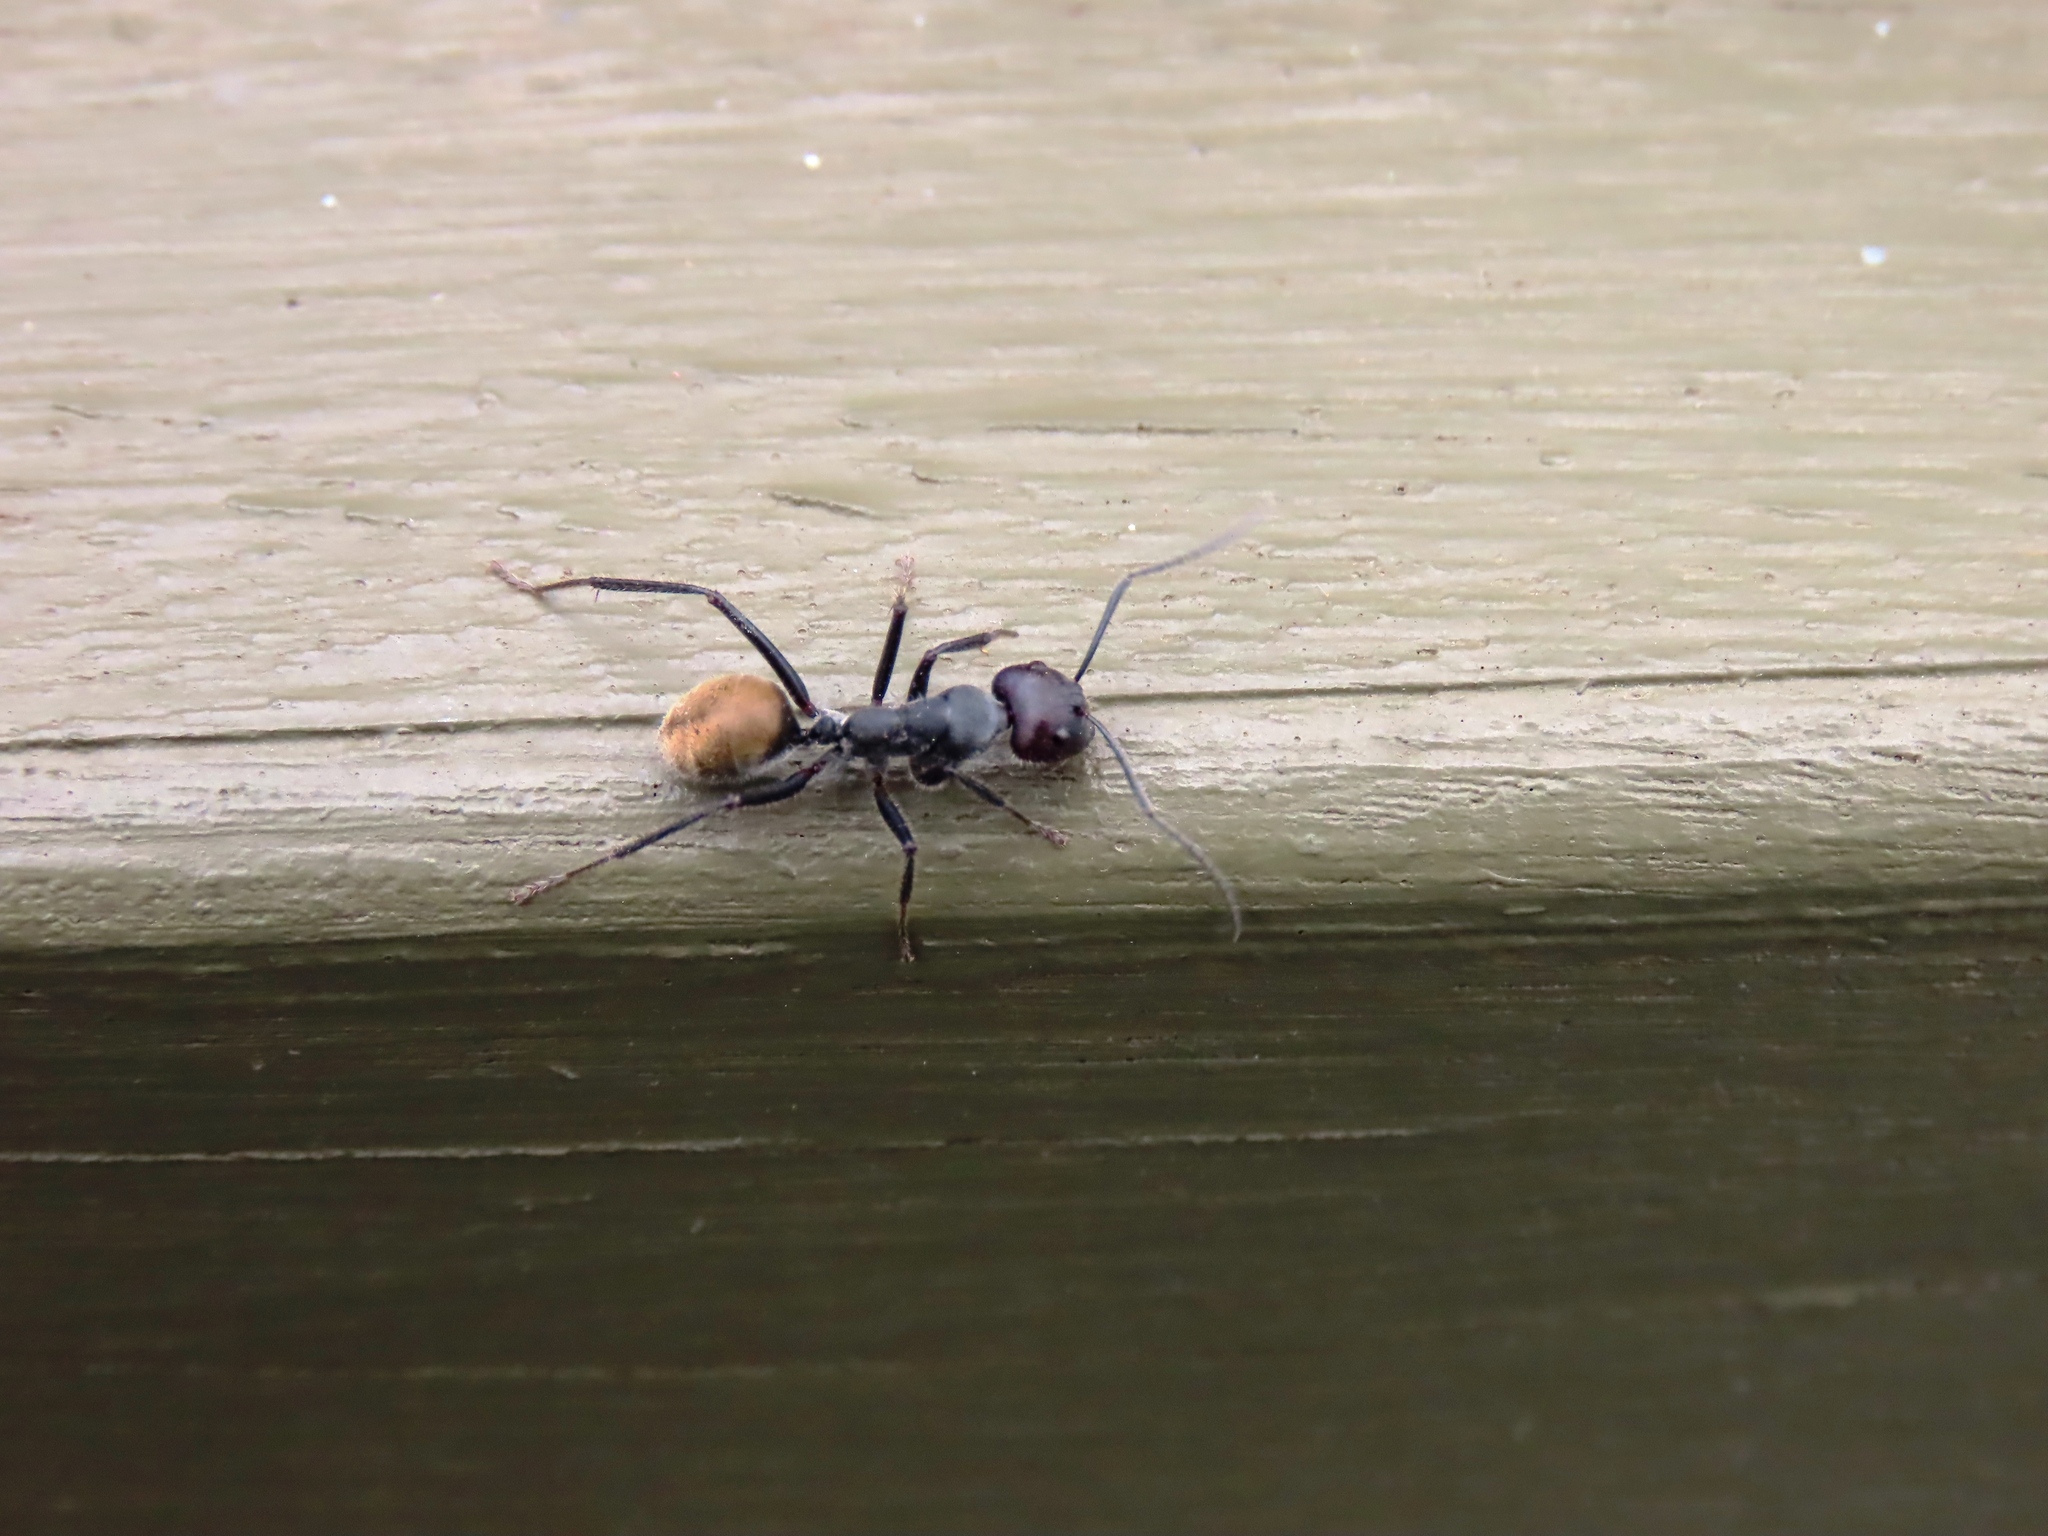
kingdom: Animalia
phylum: Arthropoda
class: Insecta
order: Hymenoptera
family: Formicidae
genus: Camponotus
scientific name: Camponotus suffusus
